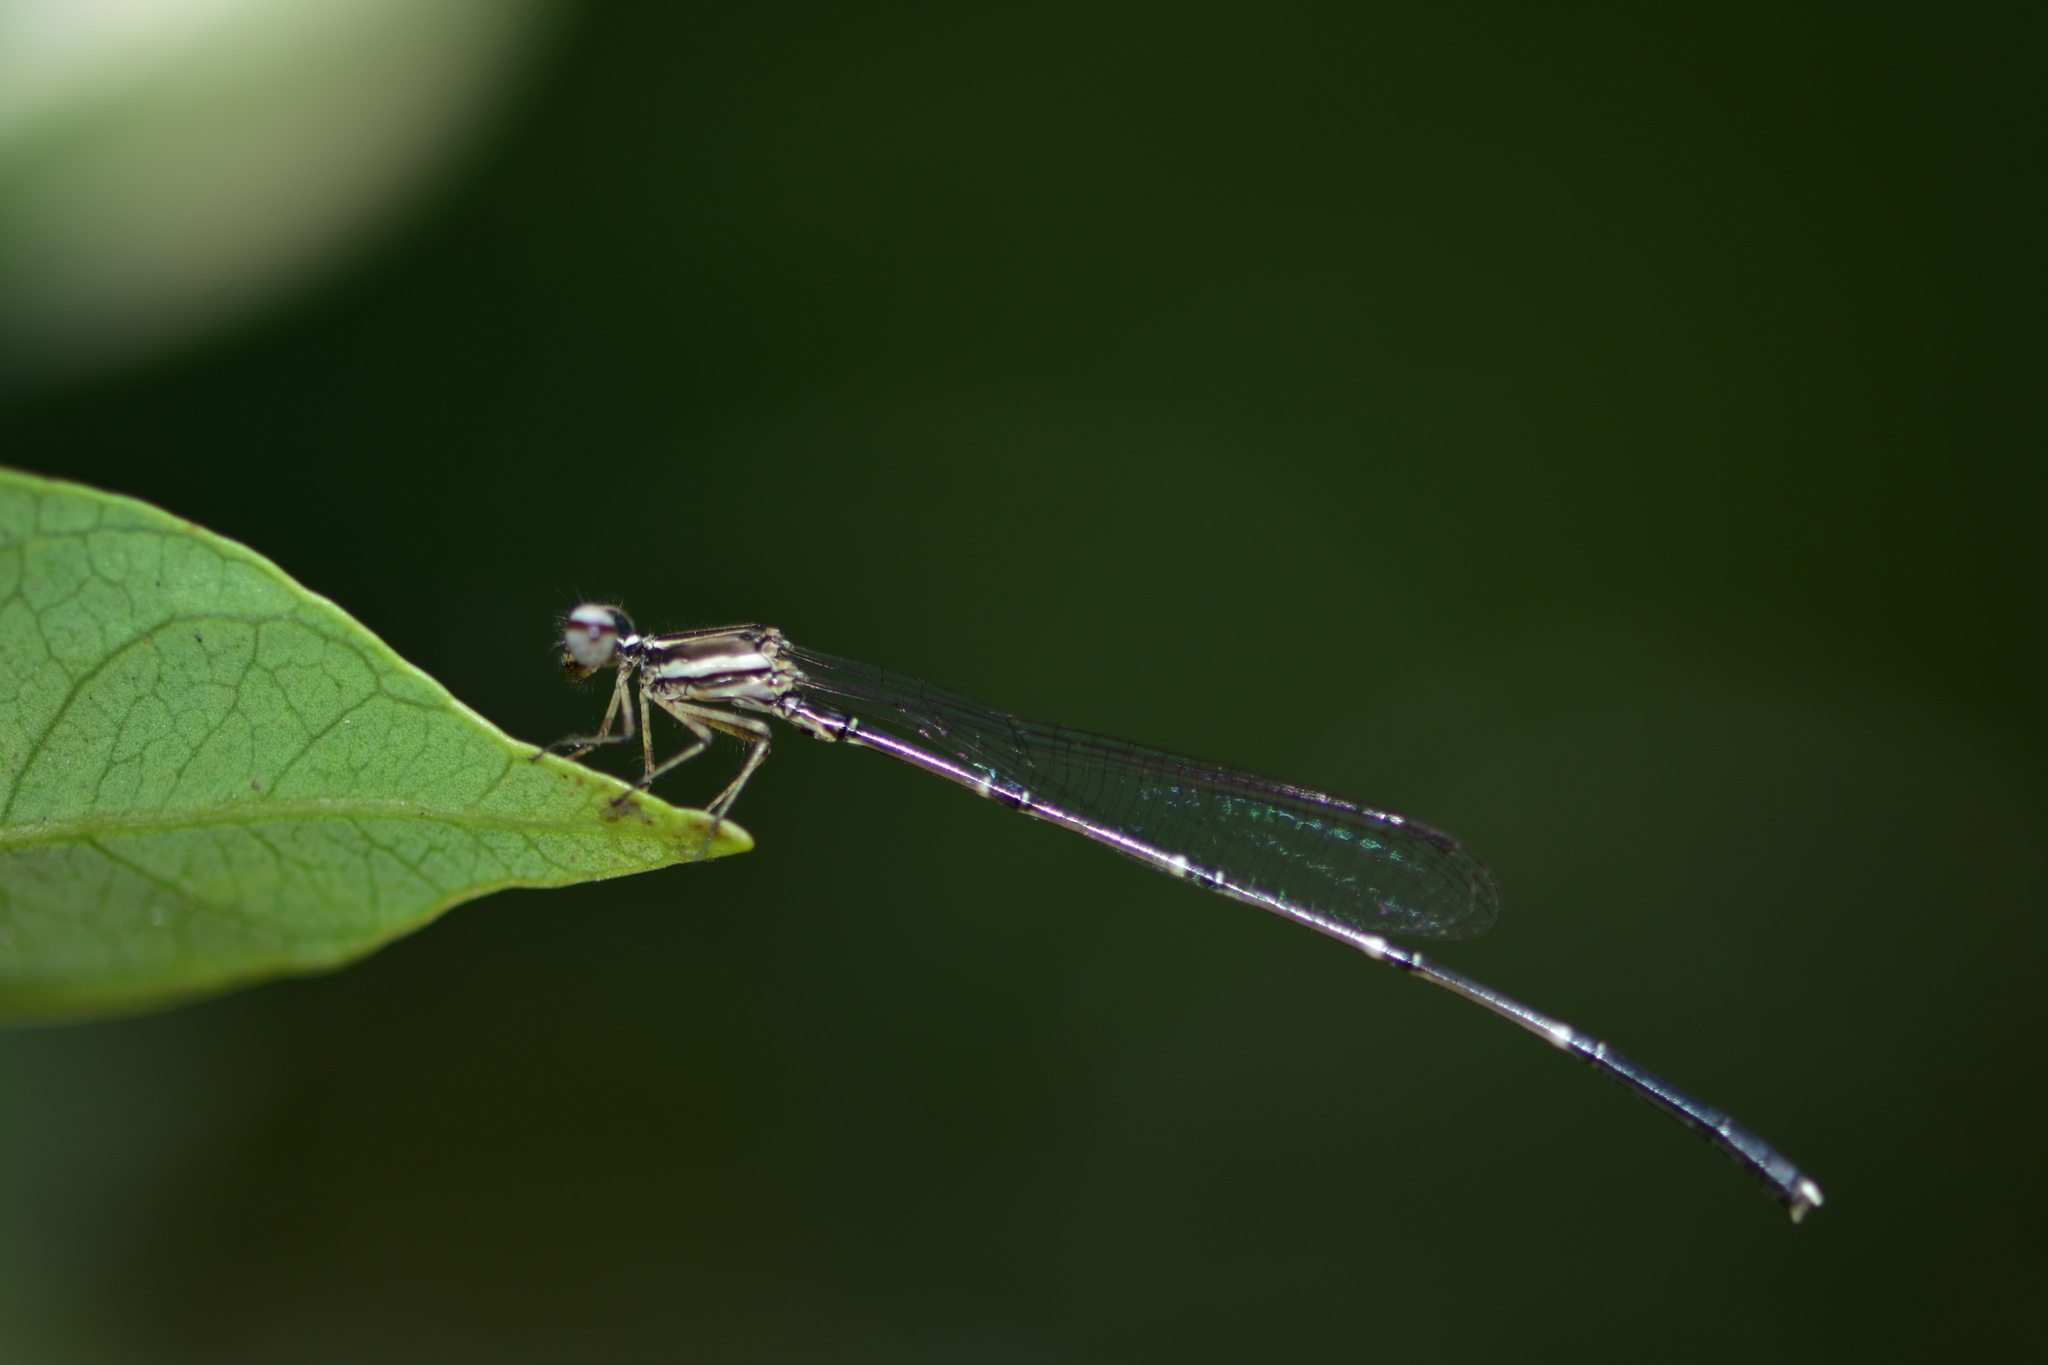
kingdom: Animalia
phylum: Arthropoda
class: Insecta
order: Odonata
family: Platycnemididae
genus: Prodasineura
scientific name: Prodasineura verticalis
